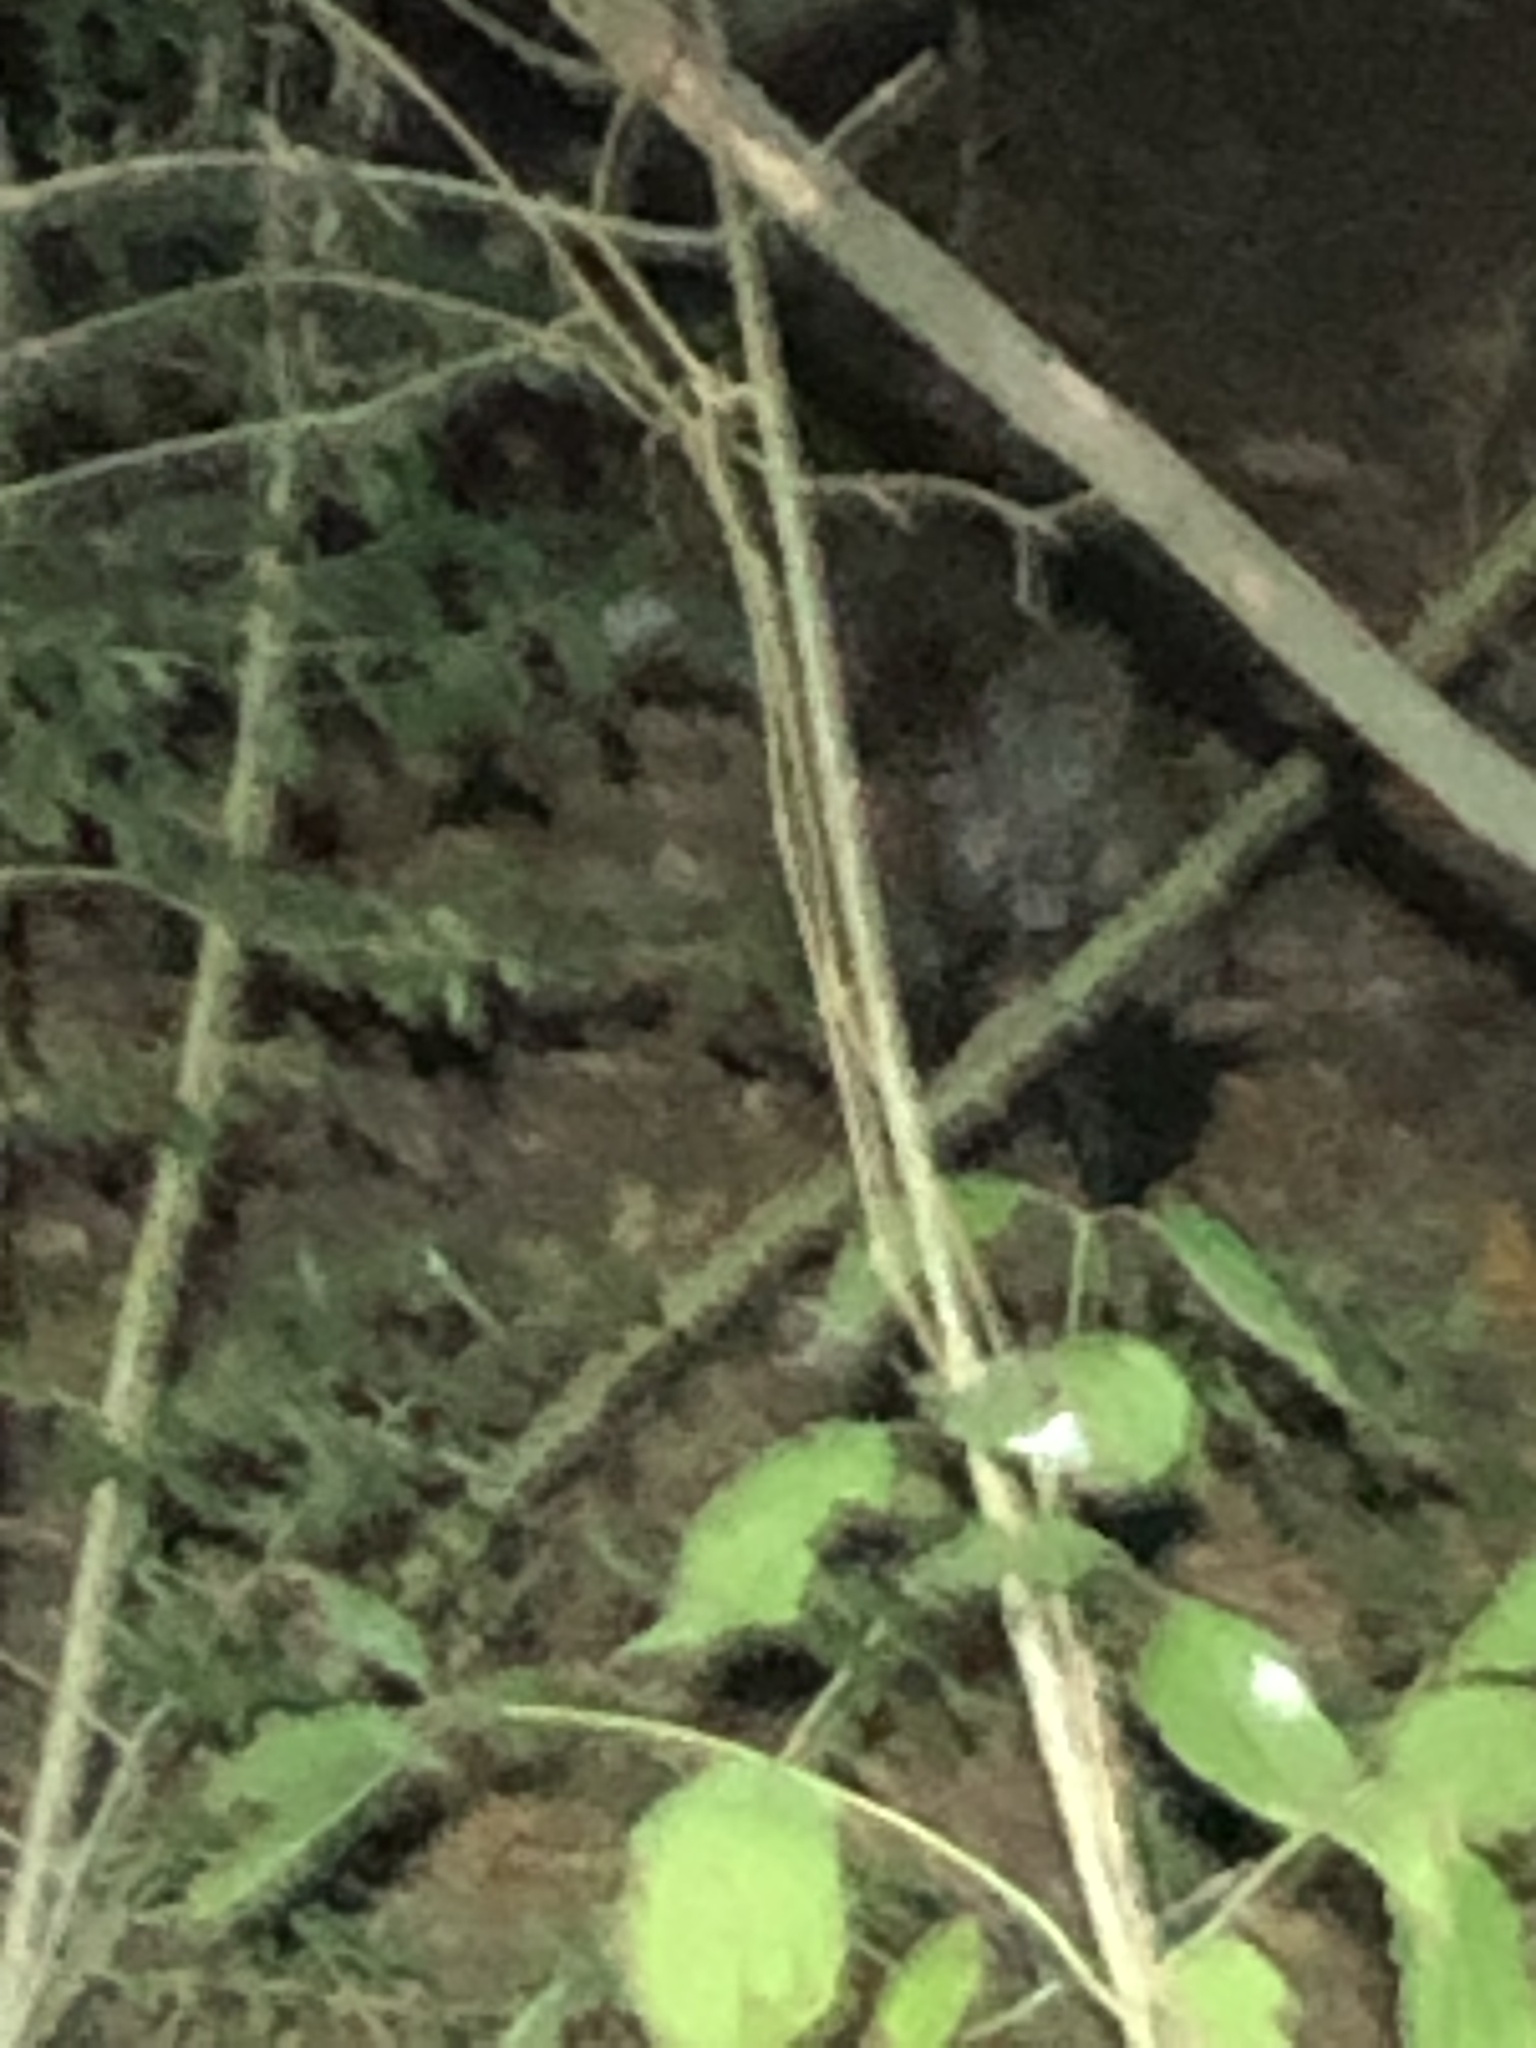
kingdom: Animalia
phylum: Chordata
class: Mammalia
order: Carnivora
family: Mephitidae
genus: Mephitis
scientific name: Mephitis mephitis
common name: Striped skunk
